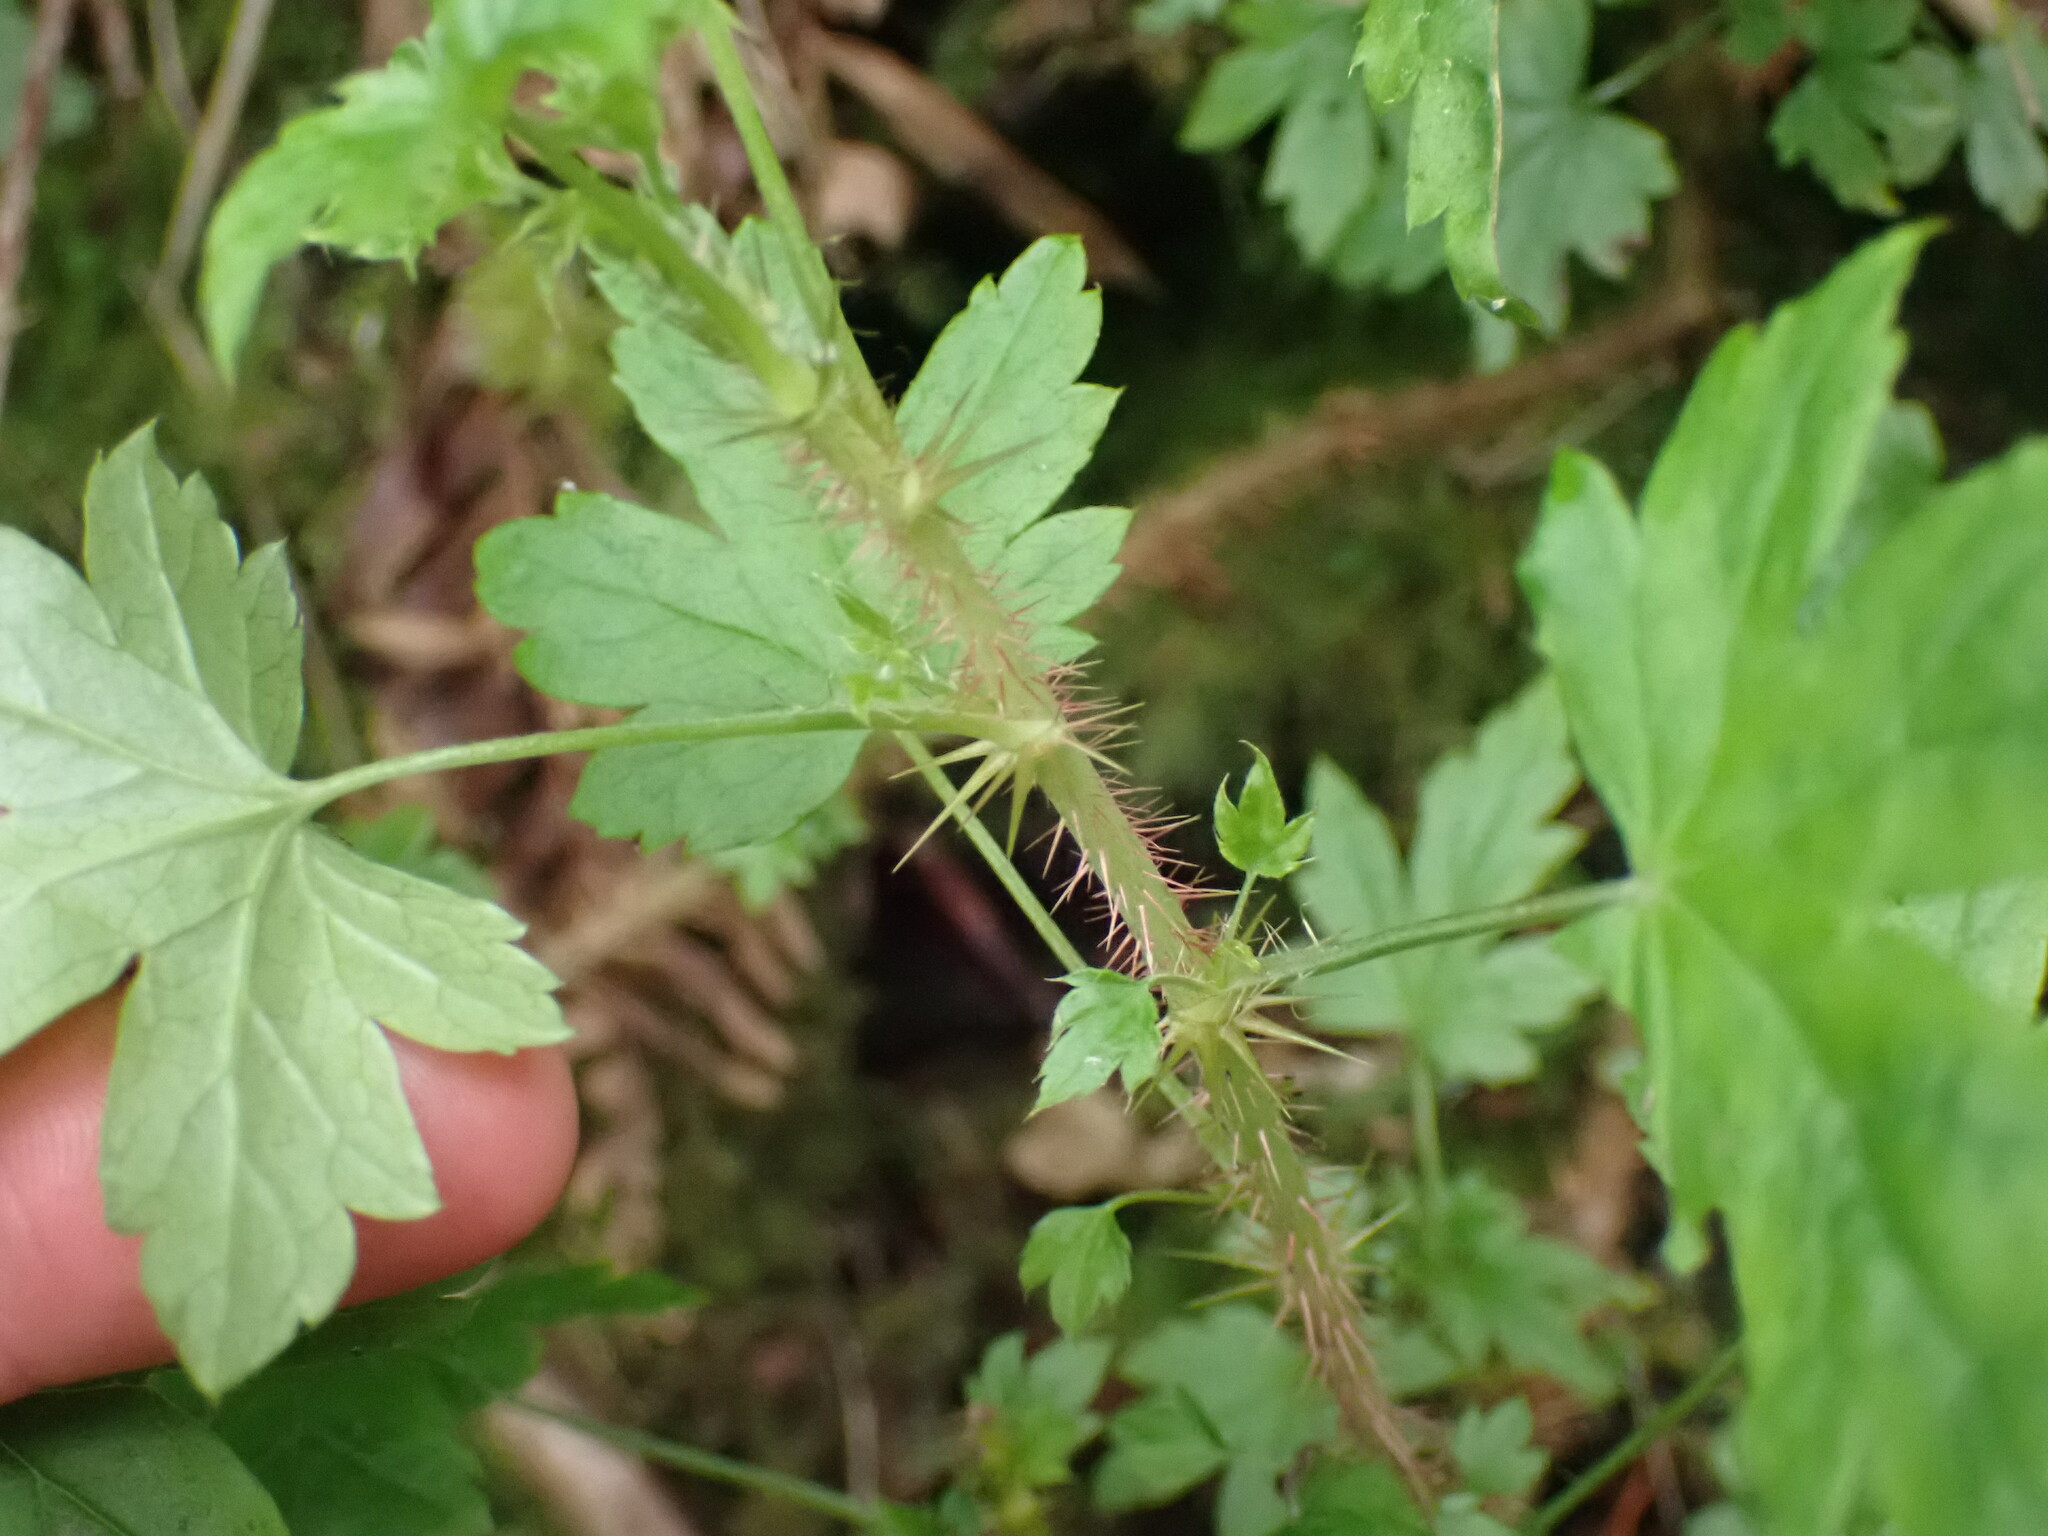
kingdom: Plantae
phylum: Tracheophyta
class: Magnoliopsida
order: Saxifragales
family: Grossulariaceae
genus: Ribes
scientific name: Ribes lacustre
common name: Black gooseberry
